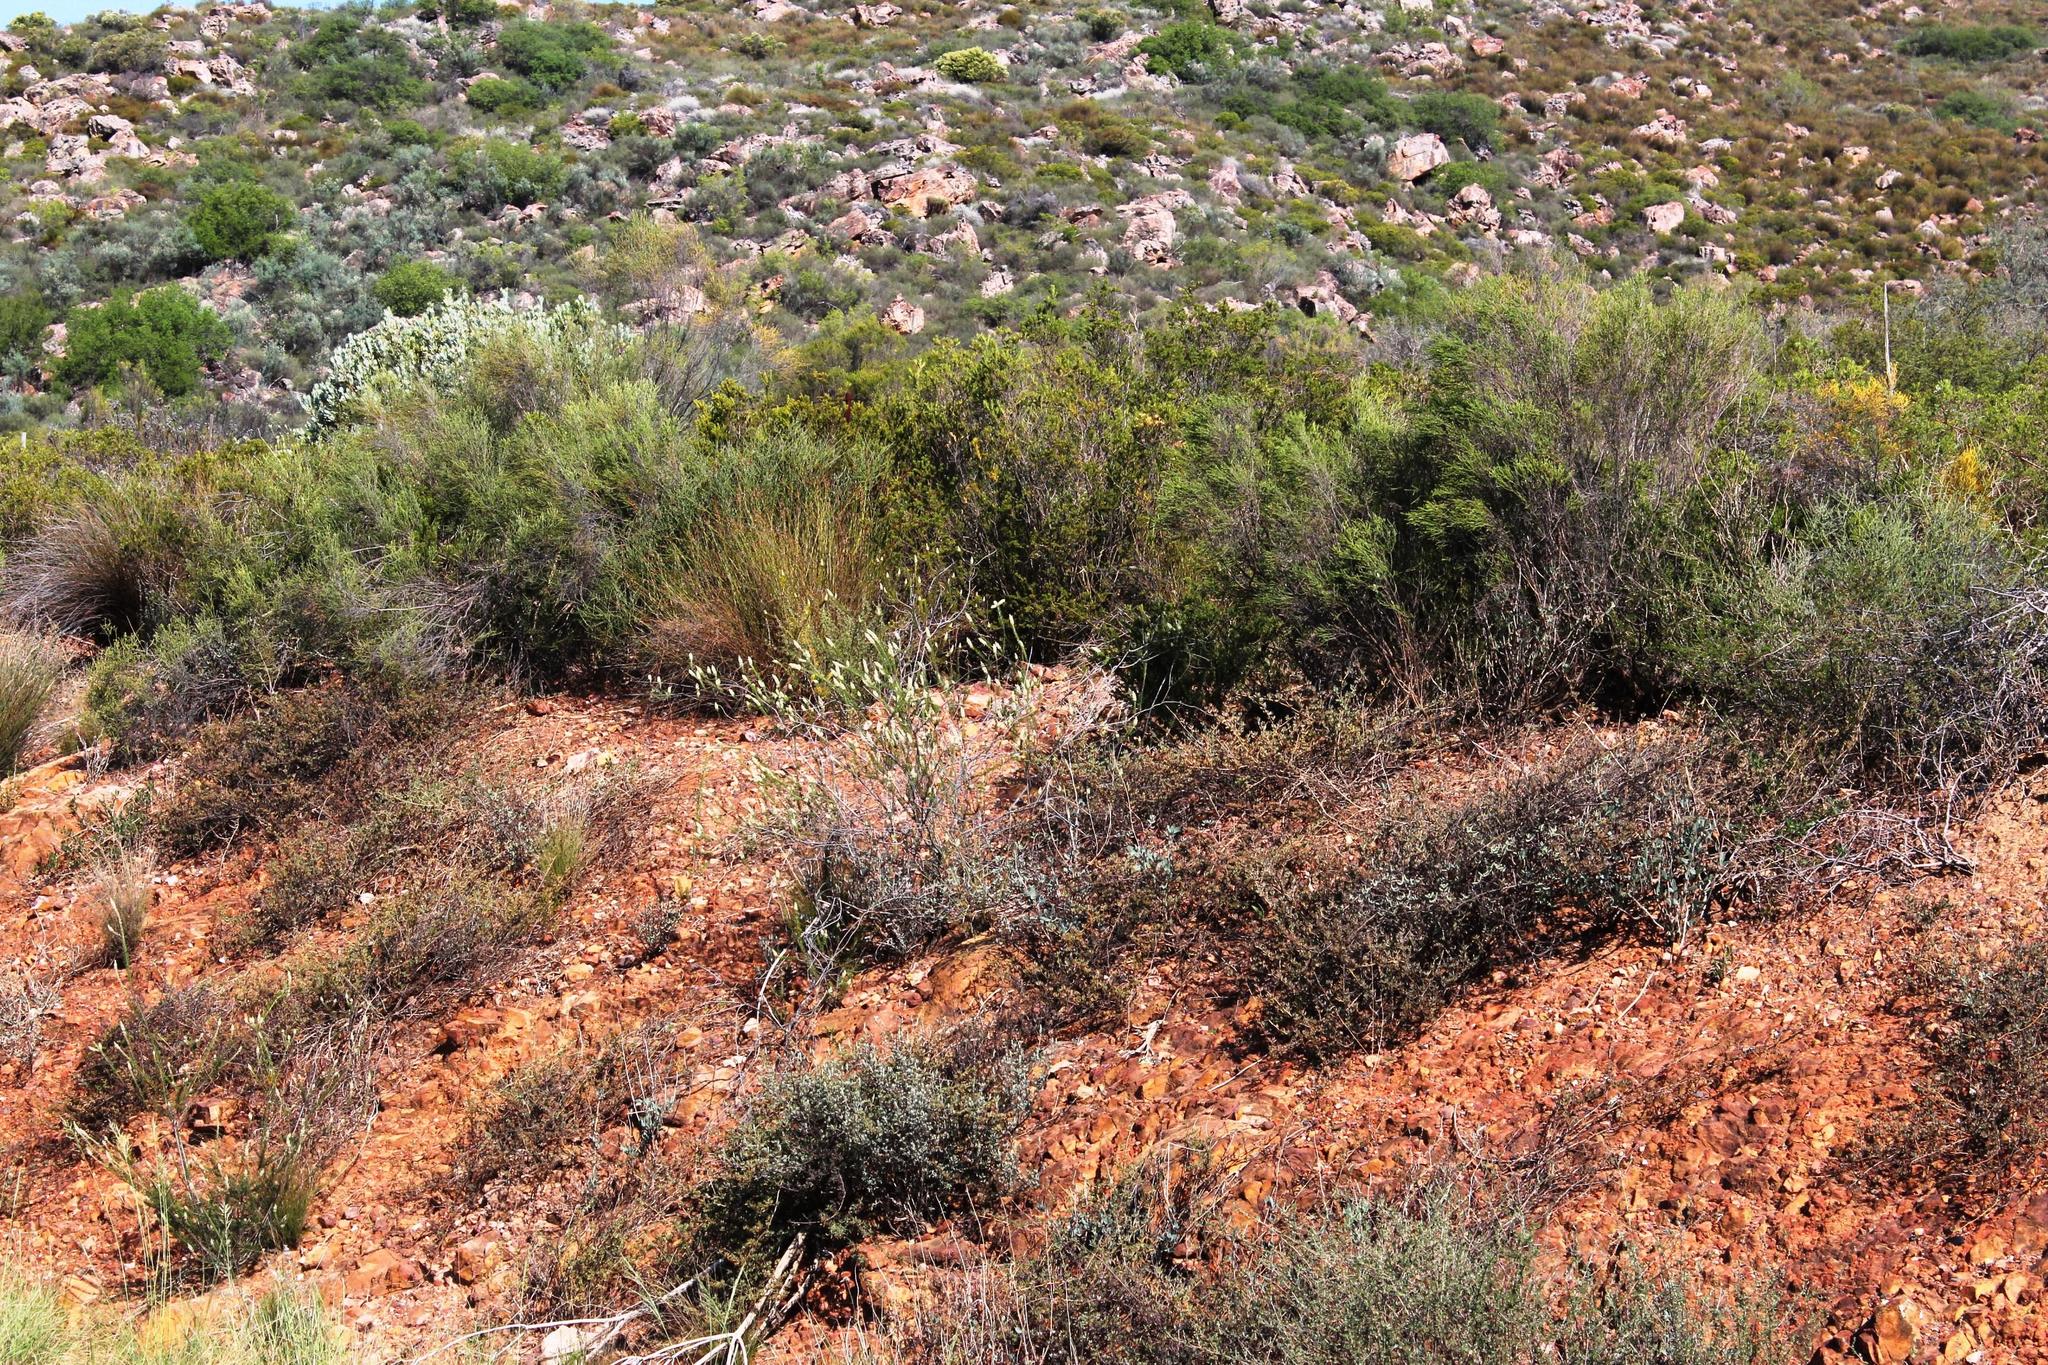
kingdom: Plantae
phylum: Tracheophyta
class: Magnoliopsida
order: Rosales
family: Rhamnaceae
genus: Phylica
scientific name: Phylica villosa
